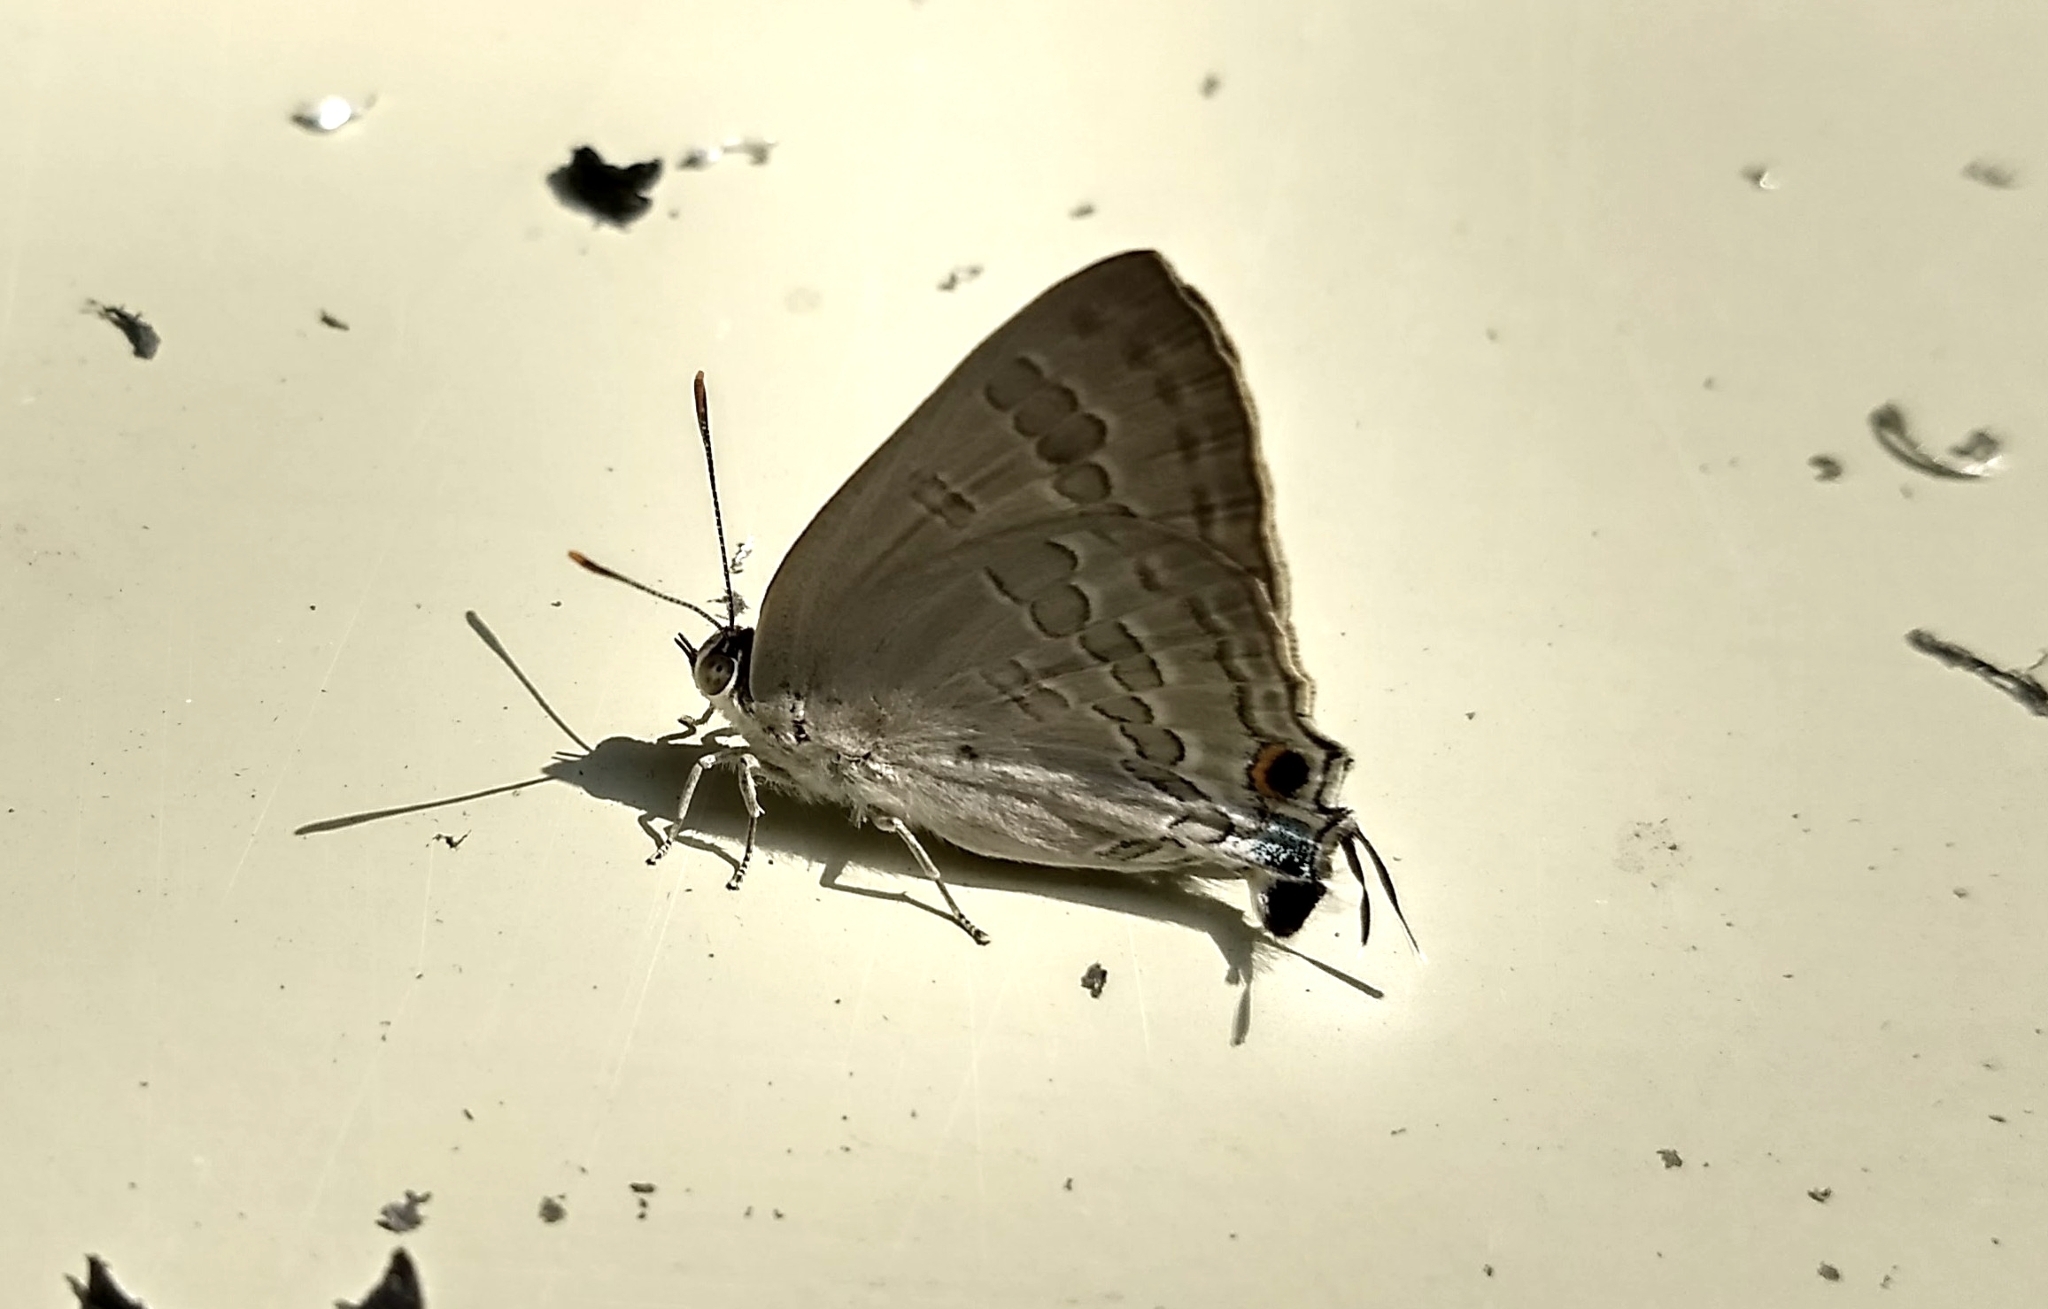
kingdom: Animalia
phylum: Arthropoda
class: Insecta
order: Lepidoptera
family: Lycaenidae
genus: Deudorix
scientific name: Deudorix
